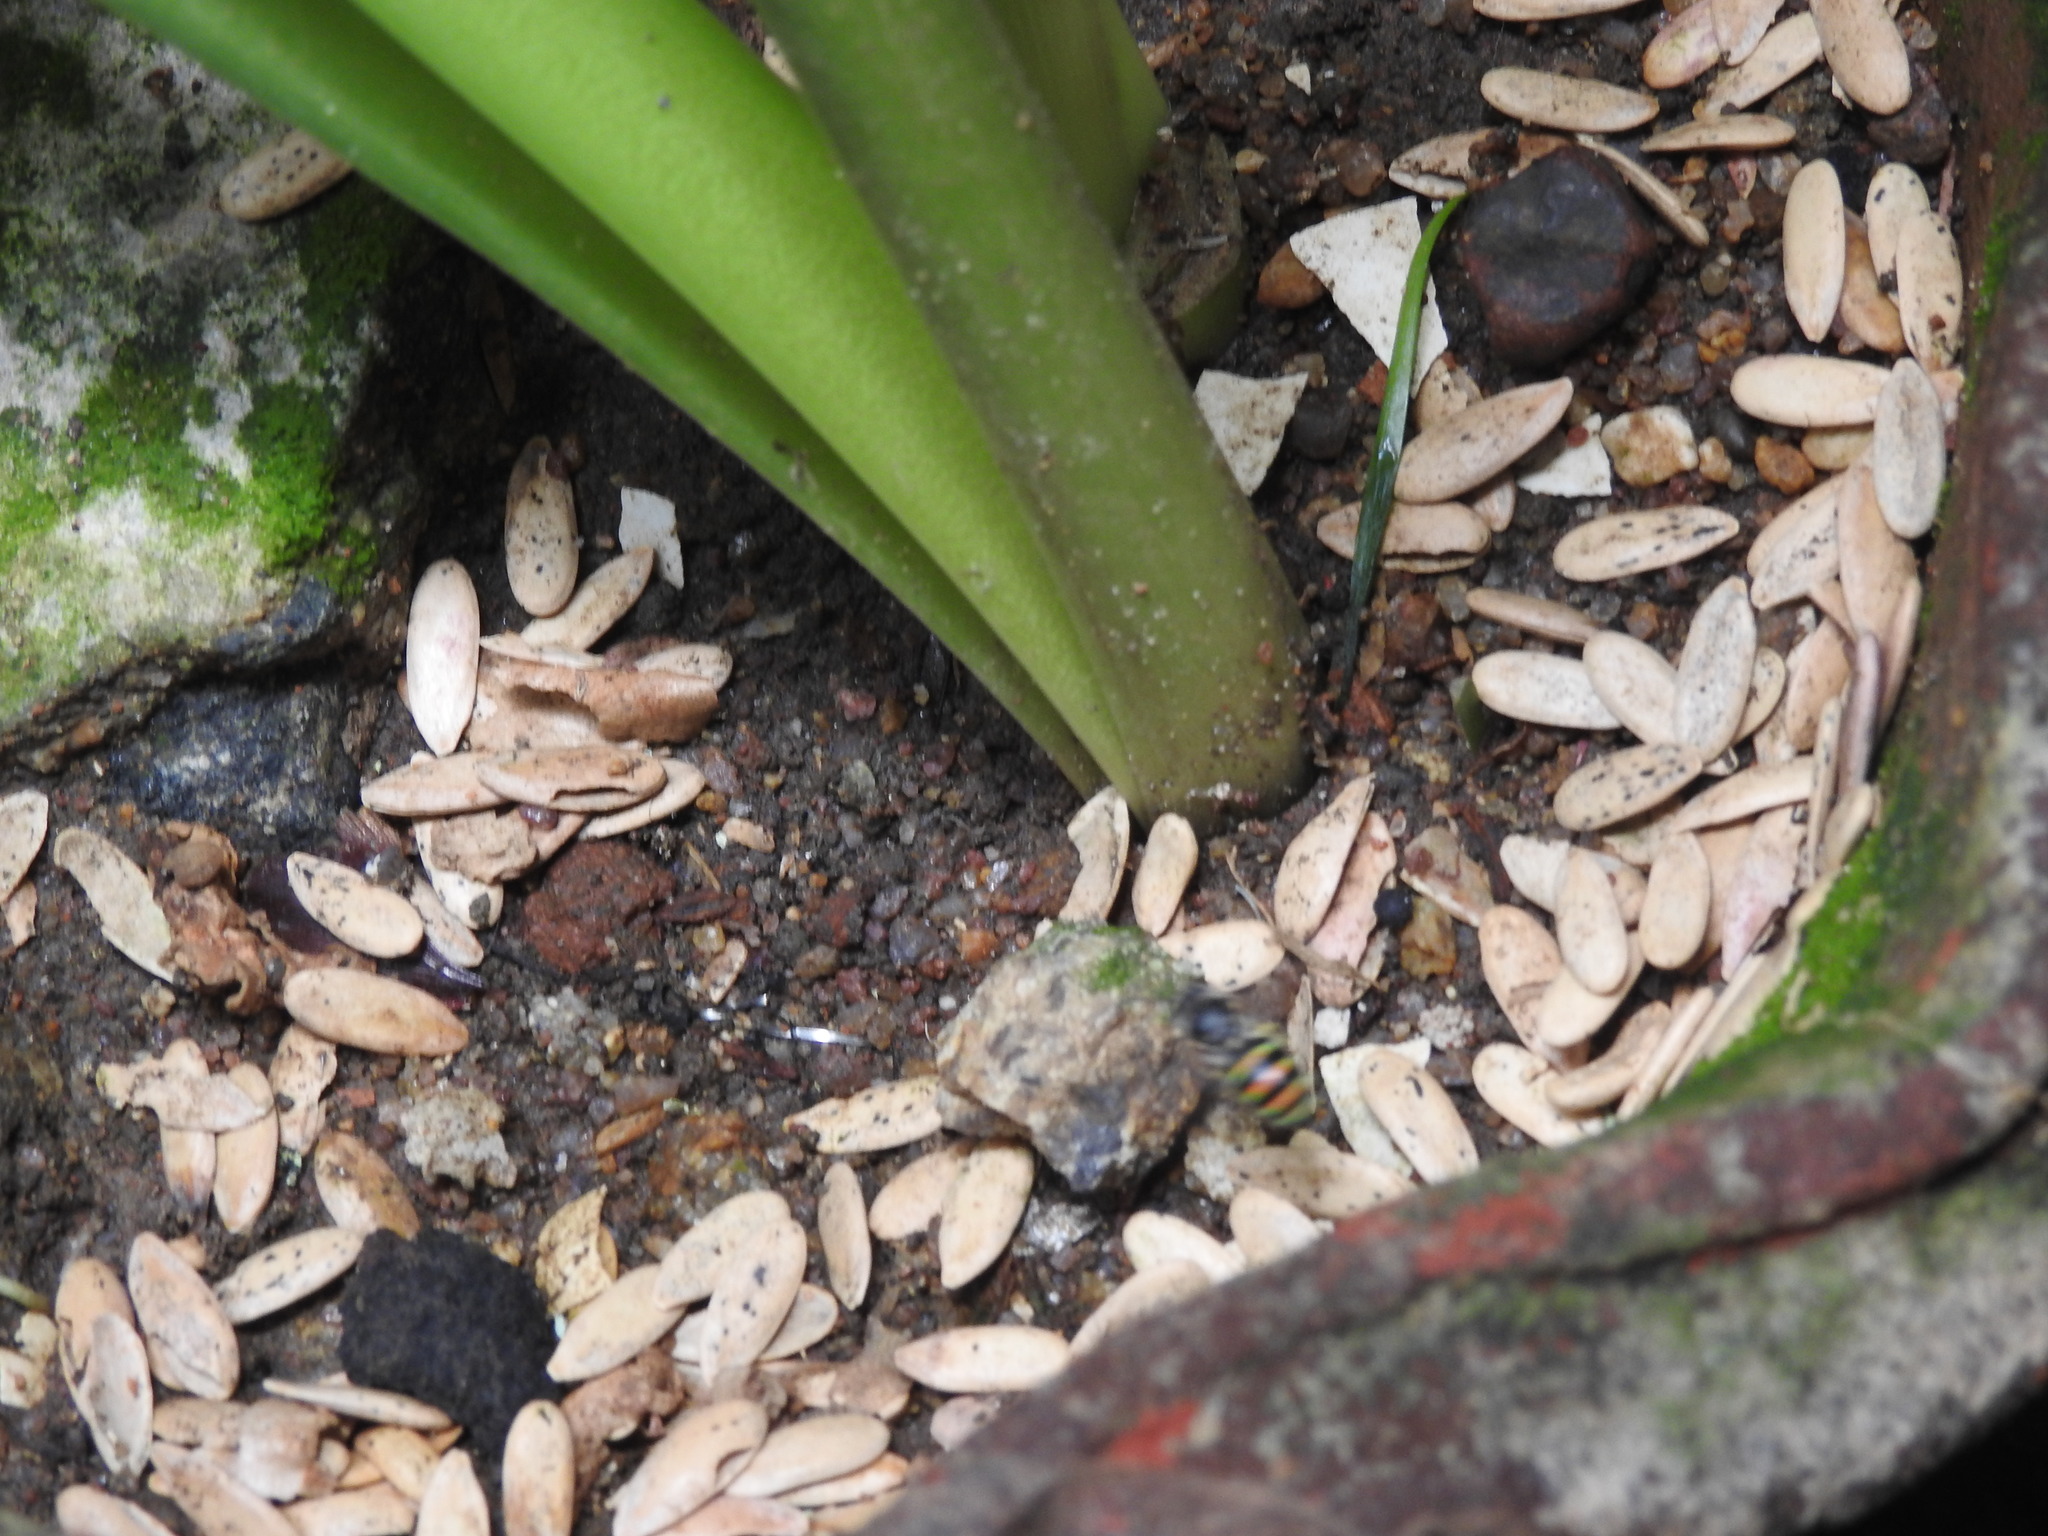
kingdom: Animalia
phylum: Arthropoda
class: Insecta
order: Hymenoptera
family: Halictidae
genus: Nomia
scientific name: Nomia westwoodi
